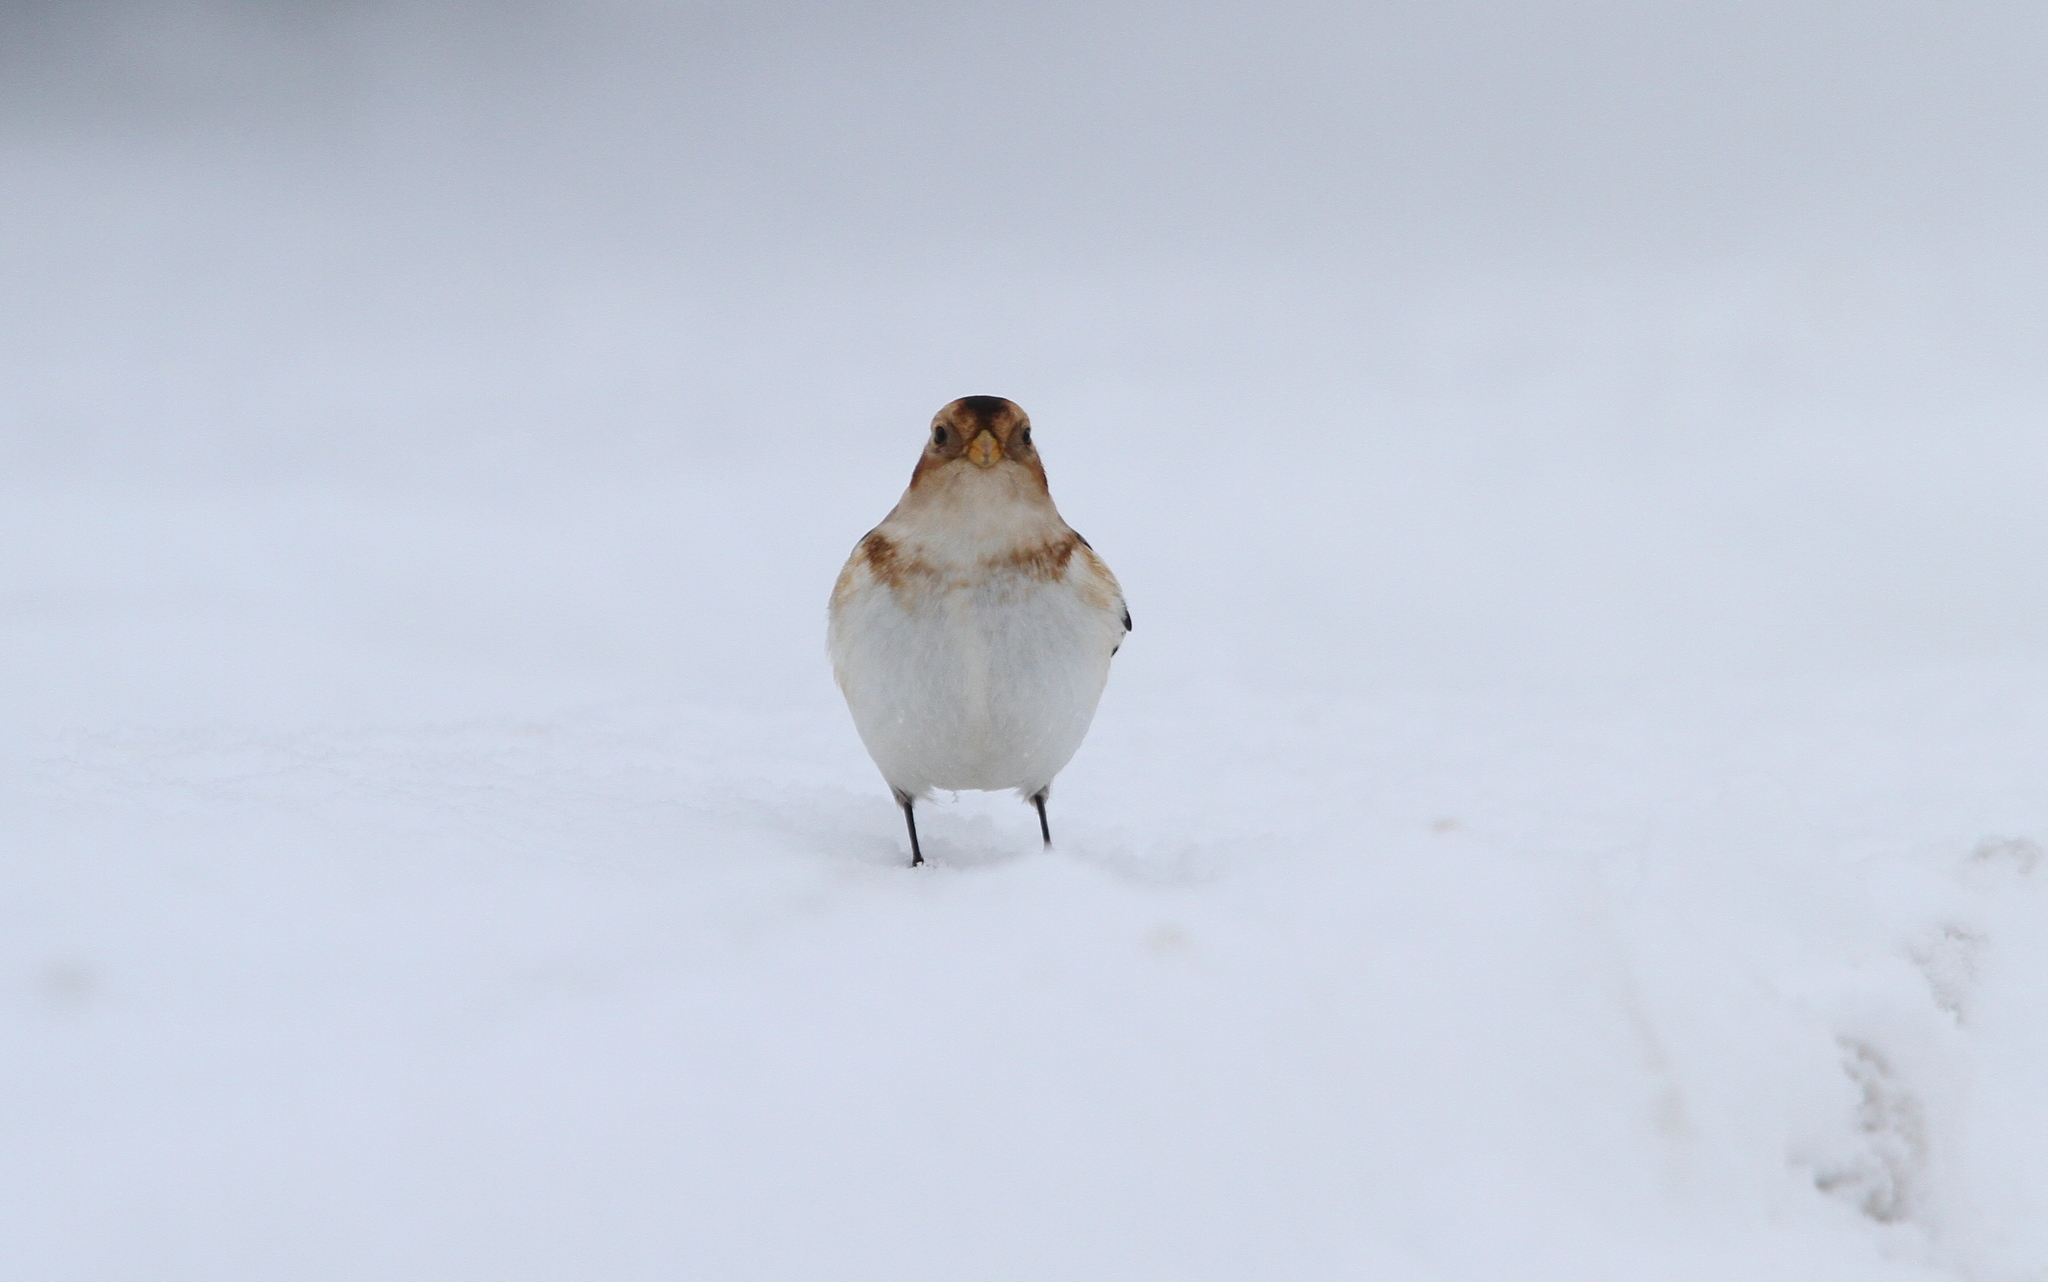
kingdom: Animalia
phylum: Chordata
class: Aves
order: Passeriformes
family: Calcariidae
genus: Plectrophenax
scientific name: Plectrophenax nivalis
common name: Snow bunting
